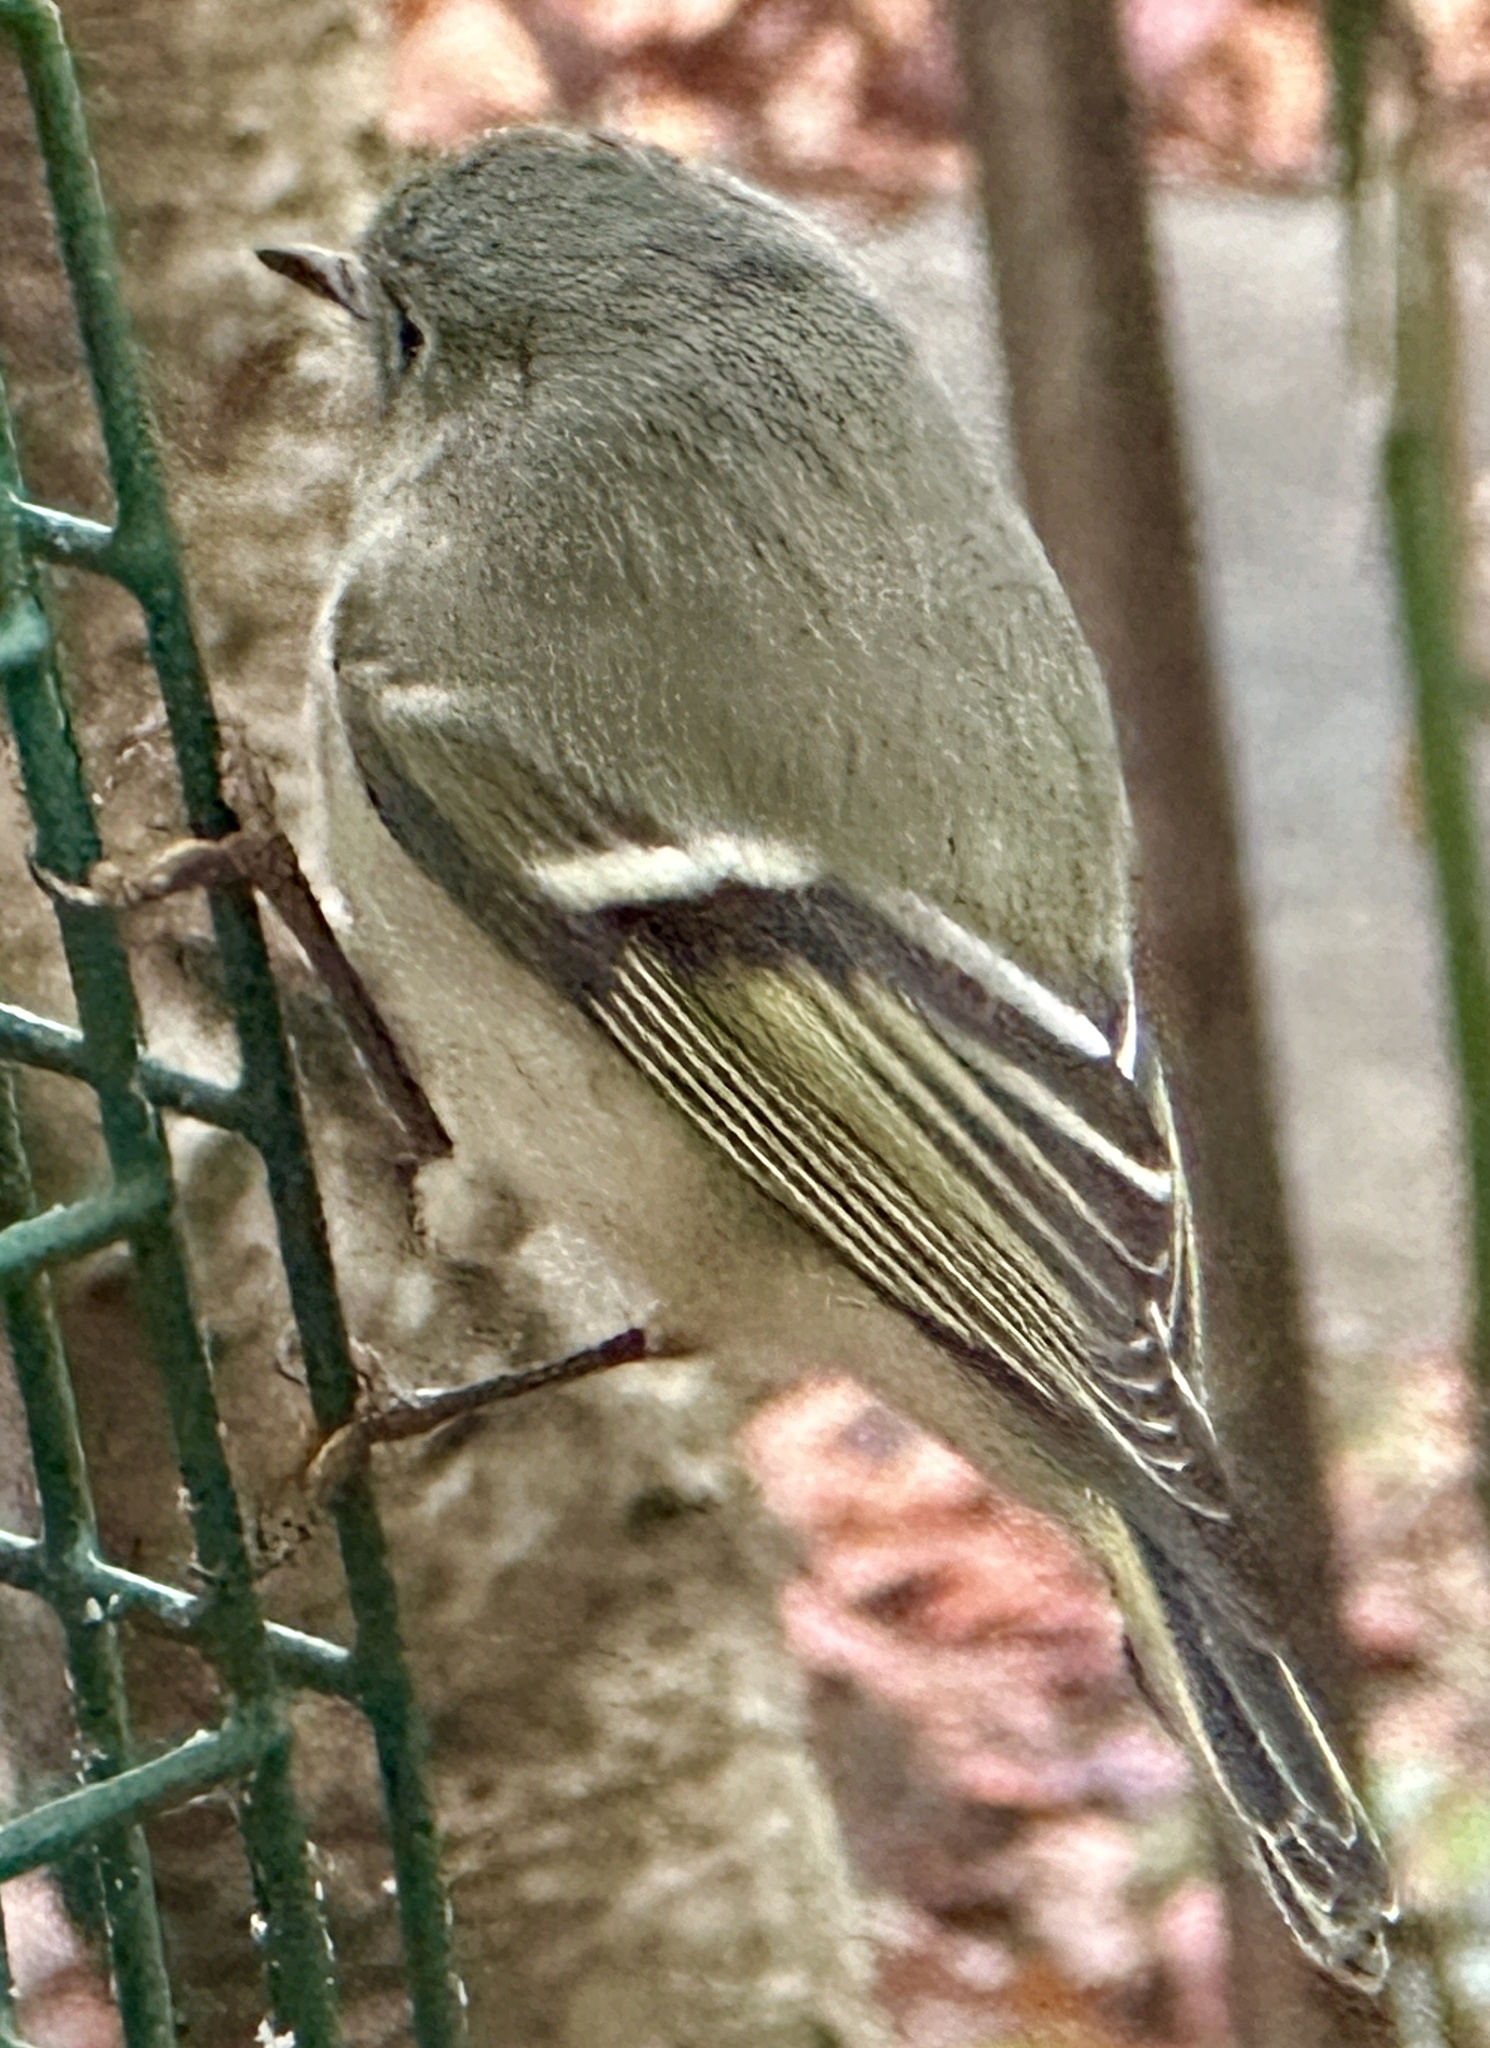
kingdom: Animalia
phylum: Chordata
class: Aves
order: Passeriformes
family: Regulidae
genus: Regulus
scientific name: Regulus calendula
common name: Ruby-crowned kinglet
